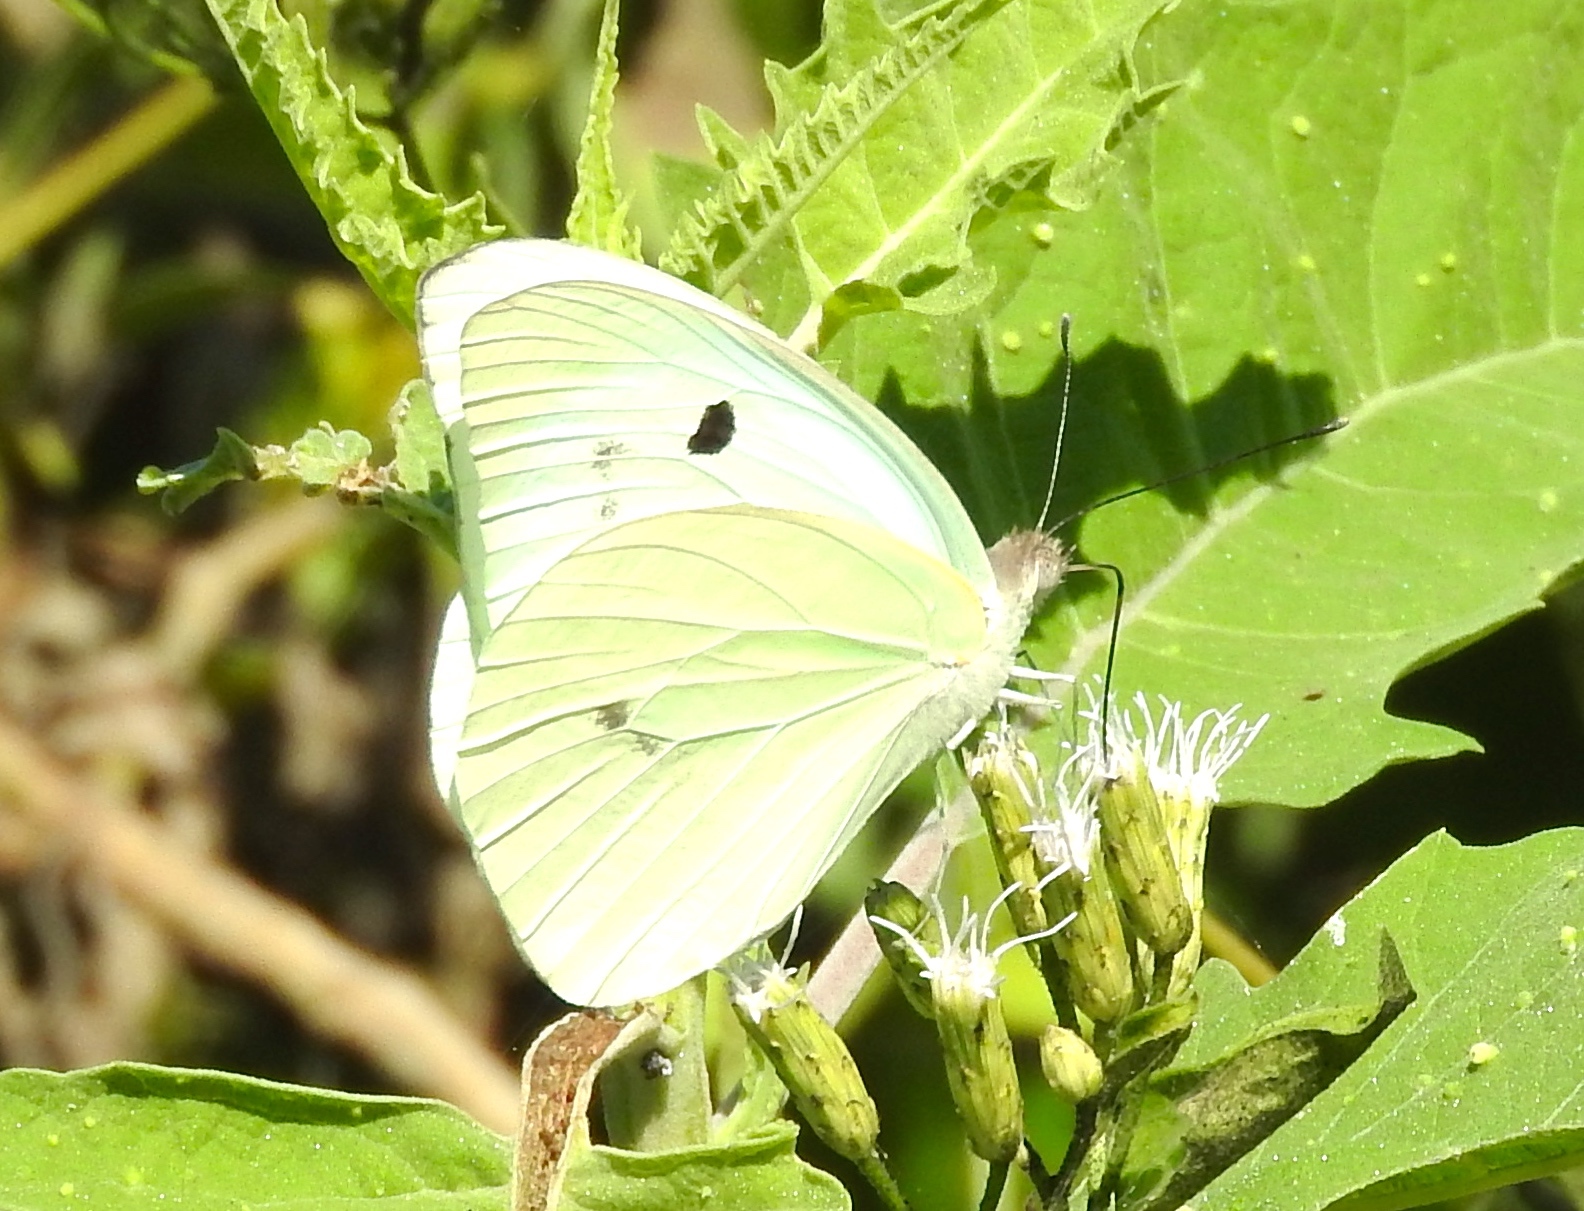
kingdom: Animalia
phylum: Arthropoda
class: Insecta
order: Lepidoptera
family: Pieridae
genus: Ganyra
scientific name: Ganyra josephina
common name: Giant white
